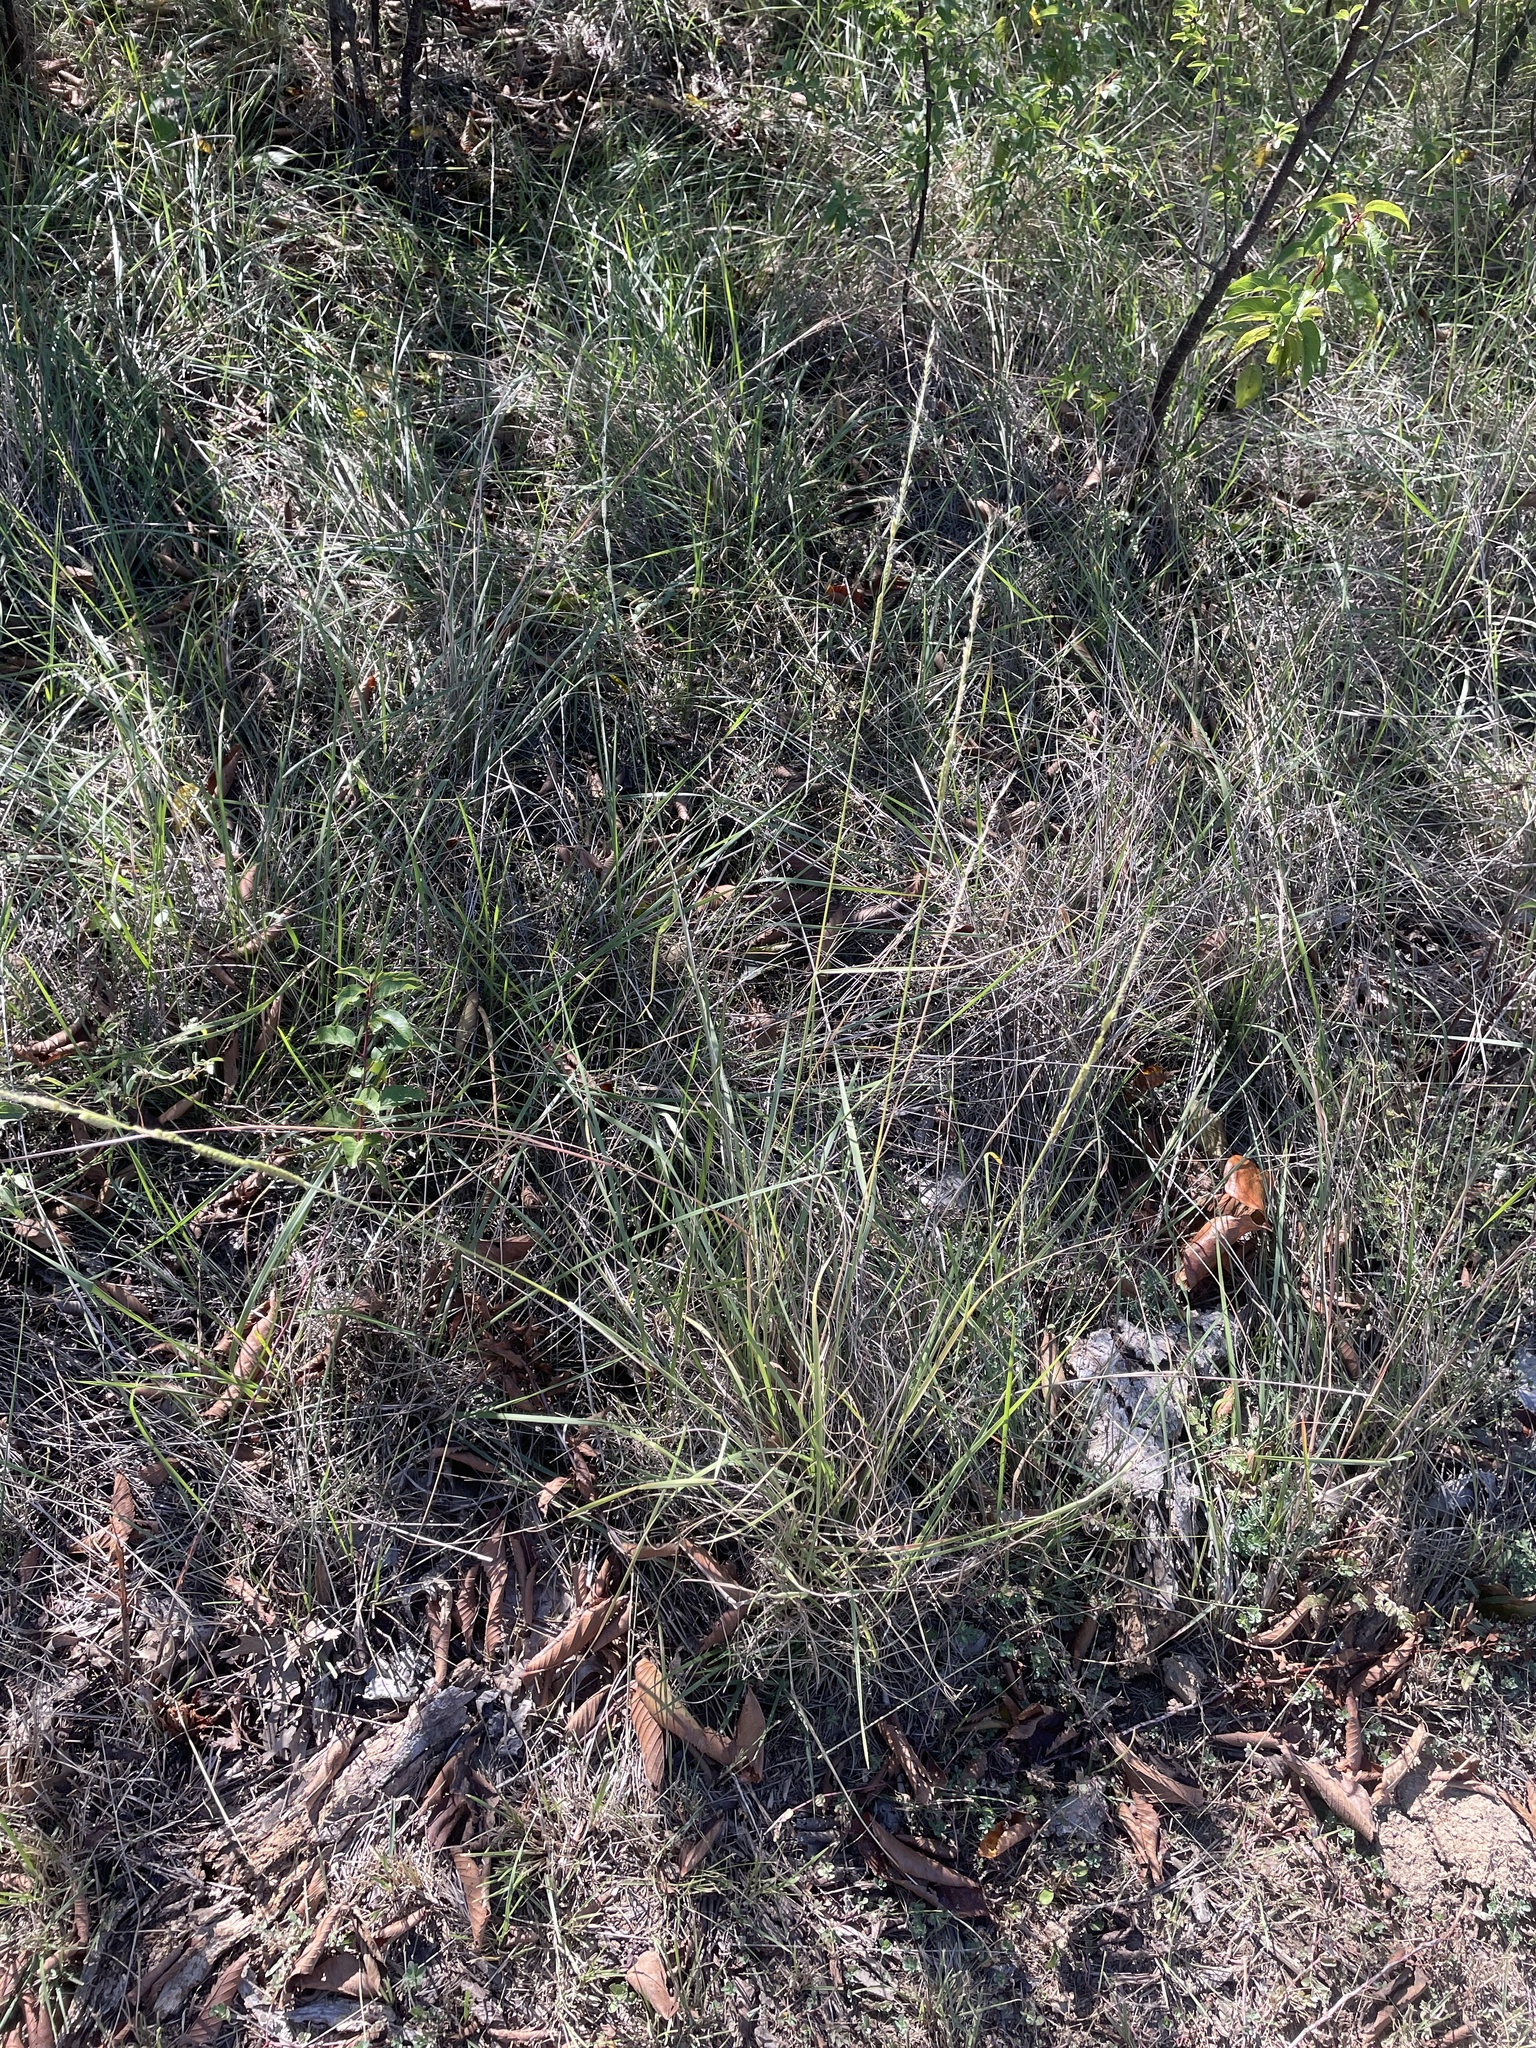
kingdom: Plantae
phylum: Tracheophyta
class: Liliopsida
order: Poales
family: Poaceae
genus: Eriochloa
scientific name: Eriochloa sericea
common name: Texas cup grass
